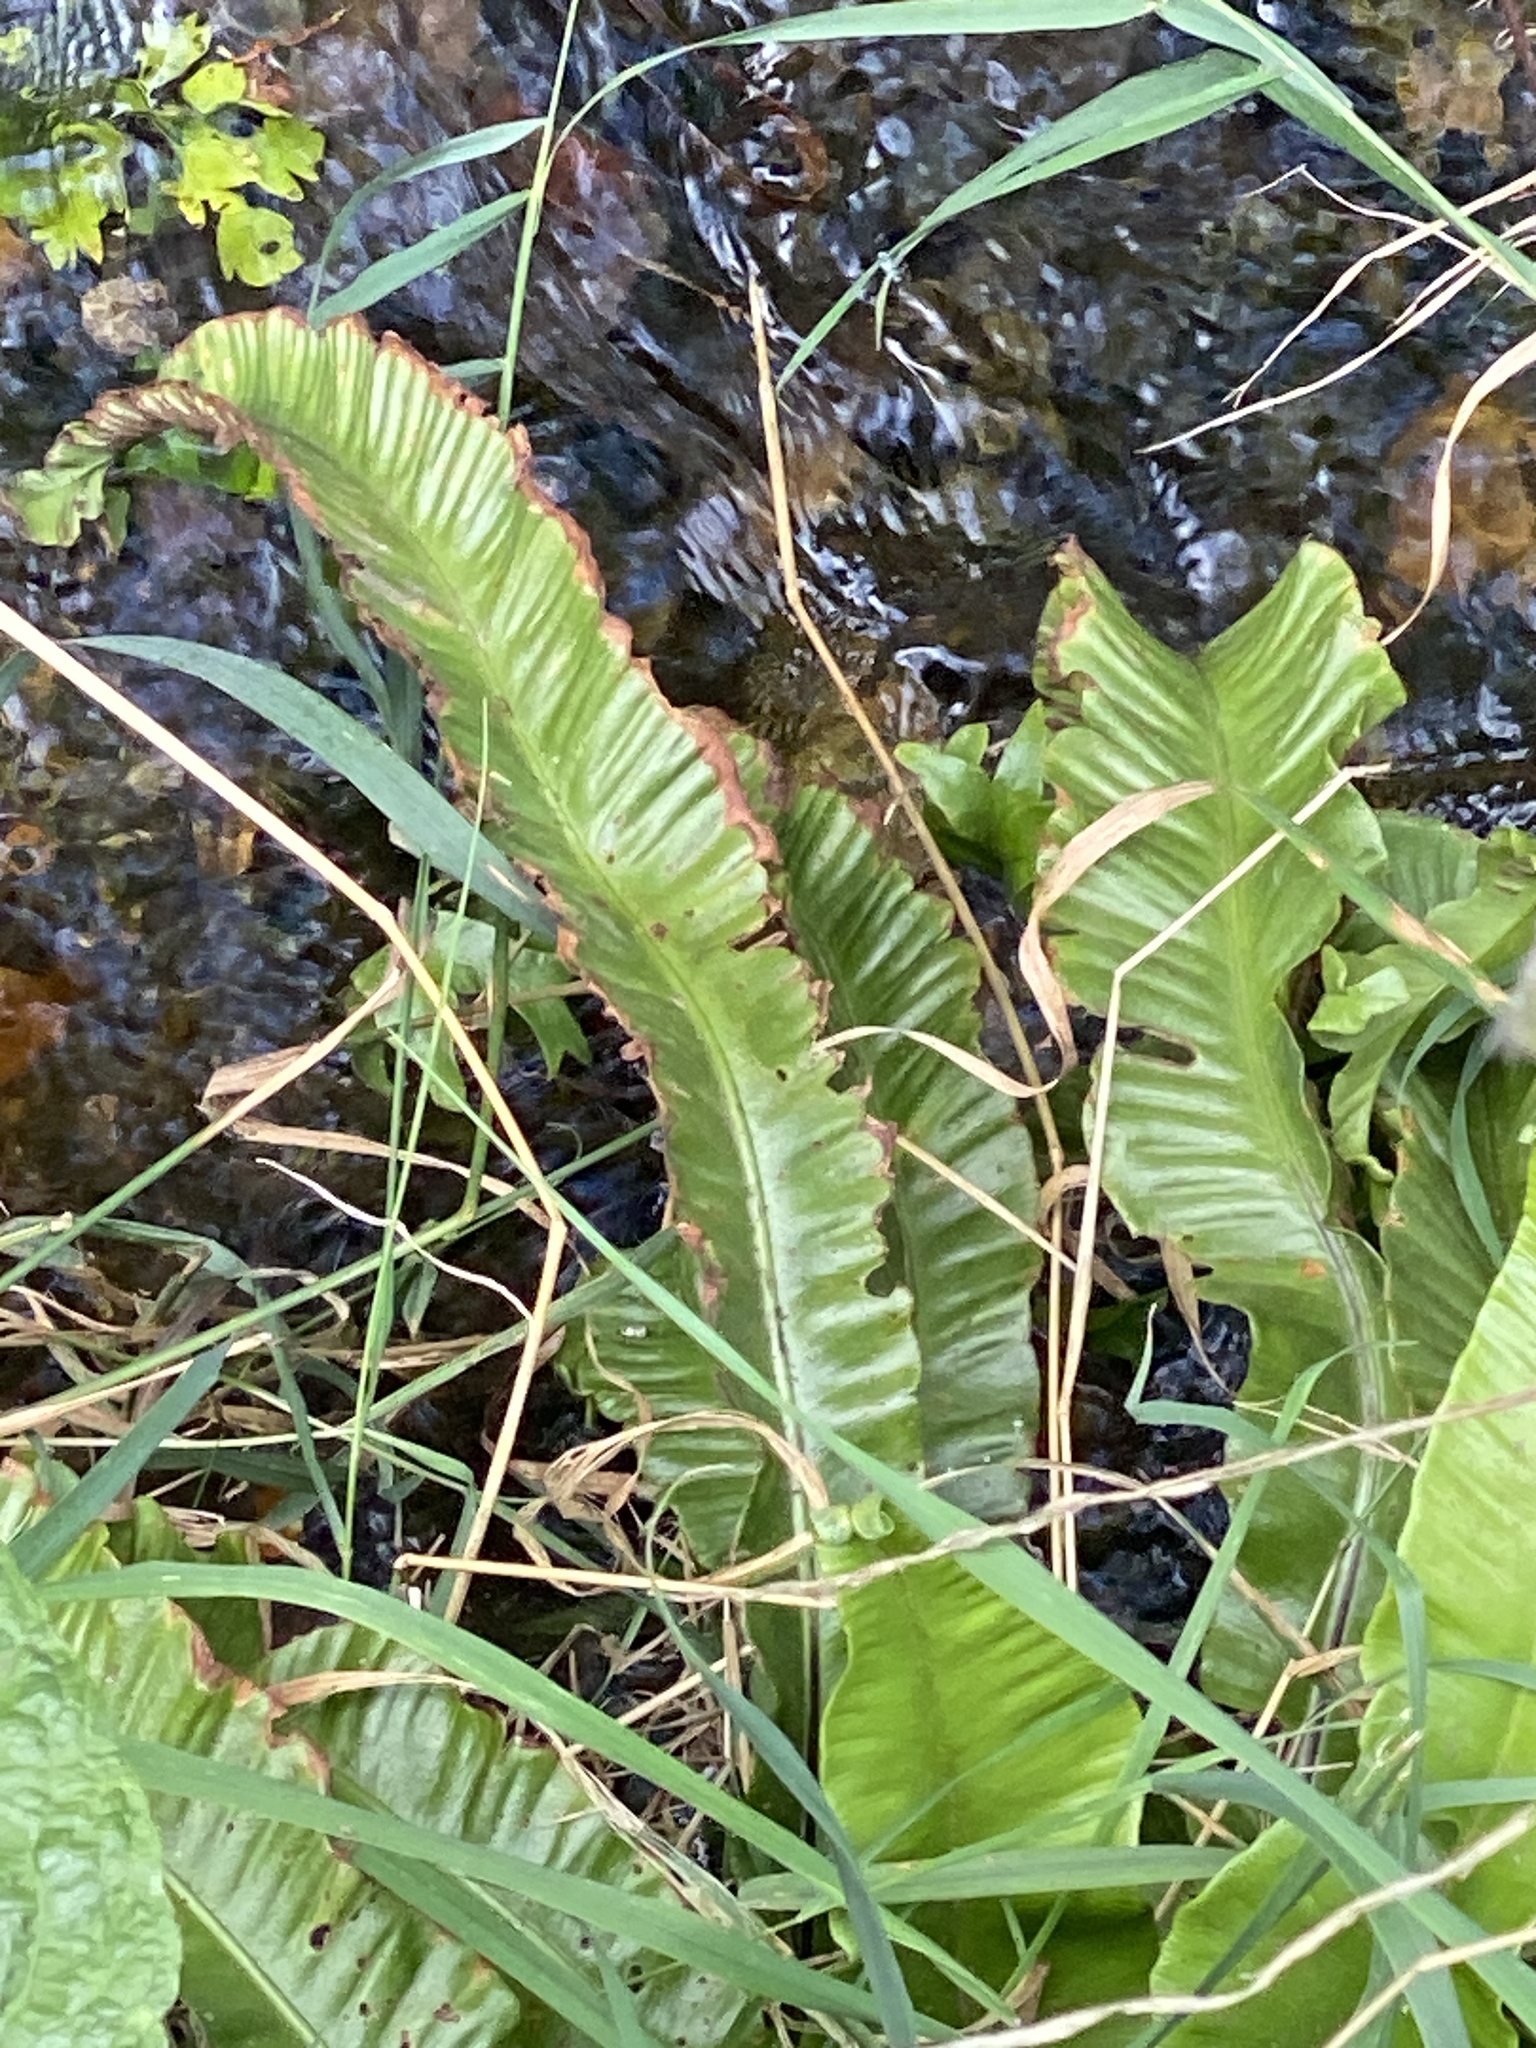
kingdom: Plantae
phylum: Tracheophyta
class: Polypodiopsida
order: Polypodiales
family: Aspleniaceae
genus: Asplenium
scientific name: Asplenium scolopendrium
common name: Hart's-tongue fern
